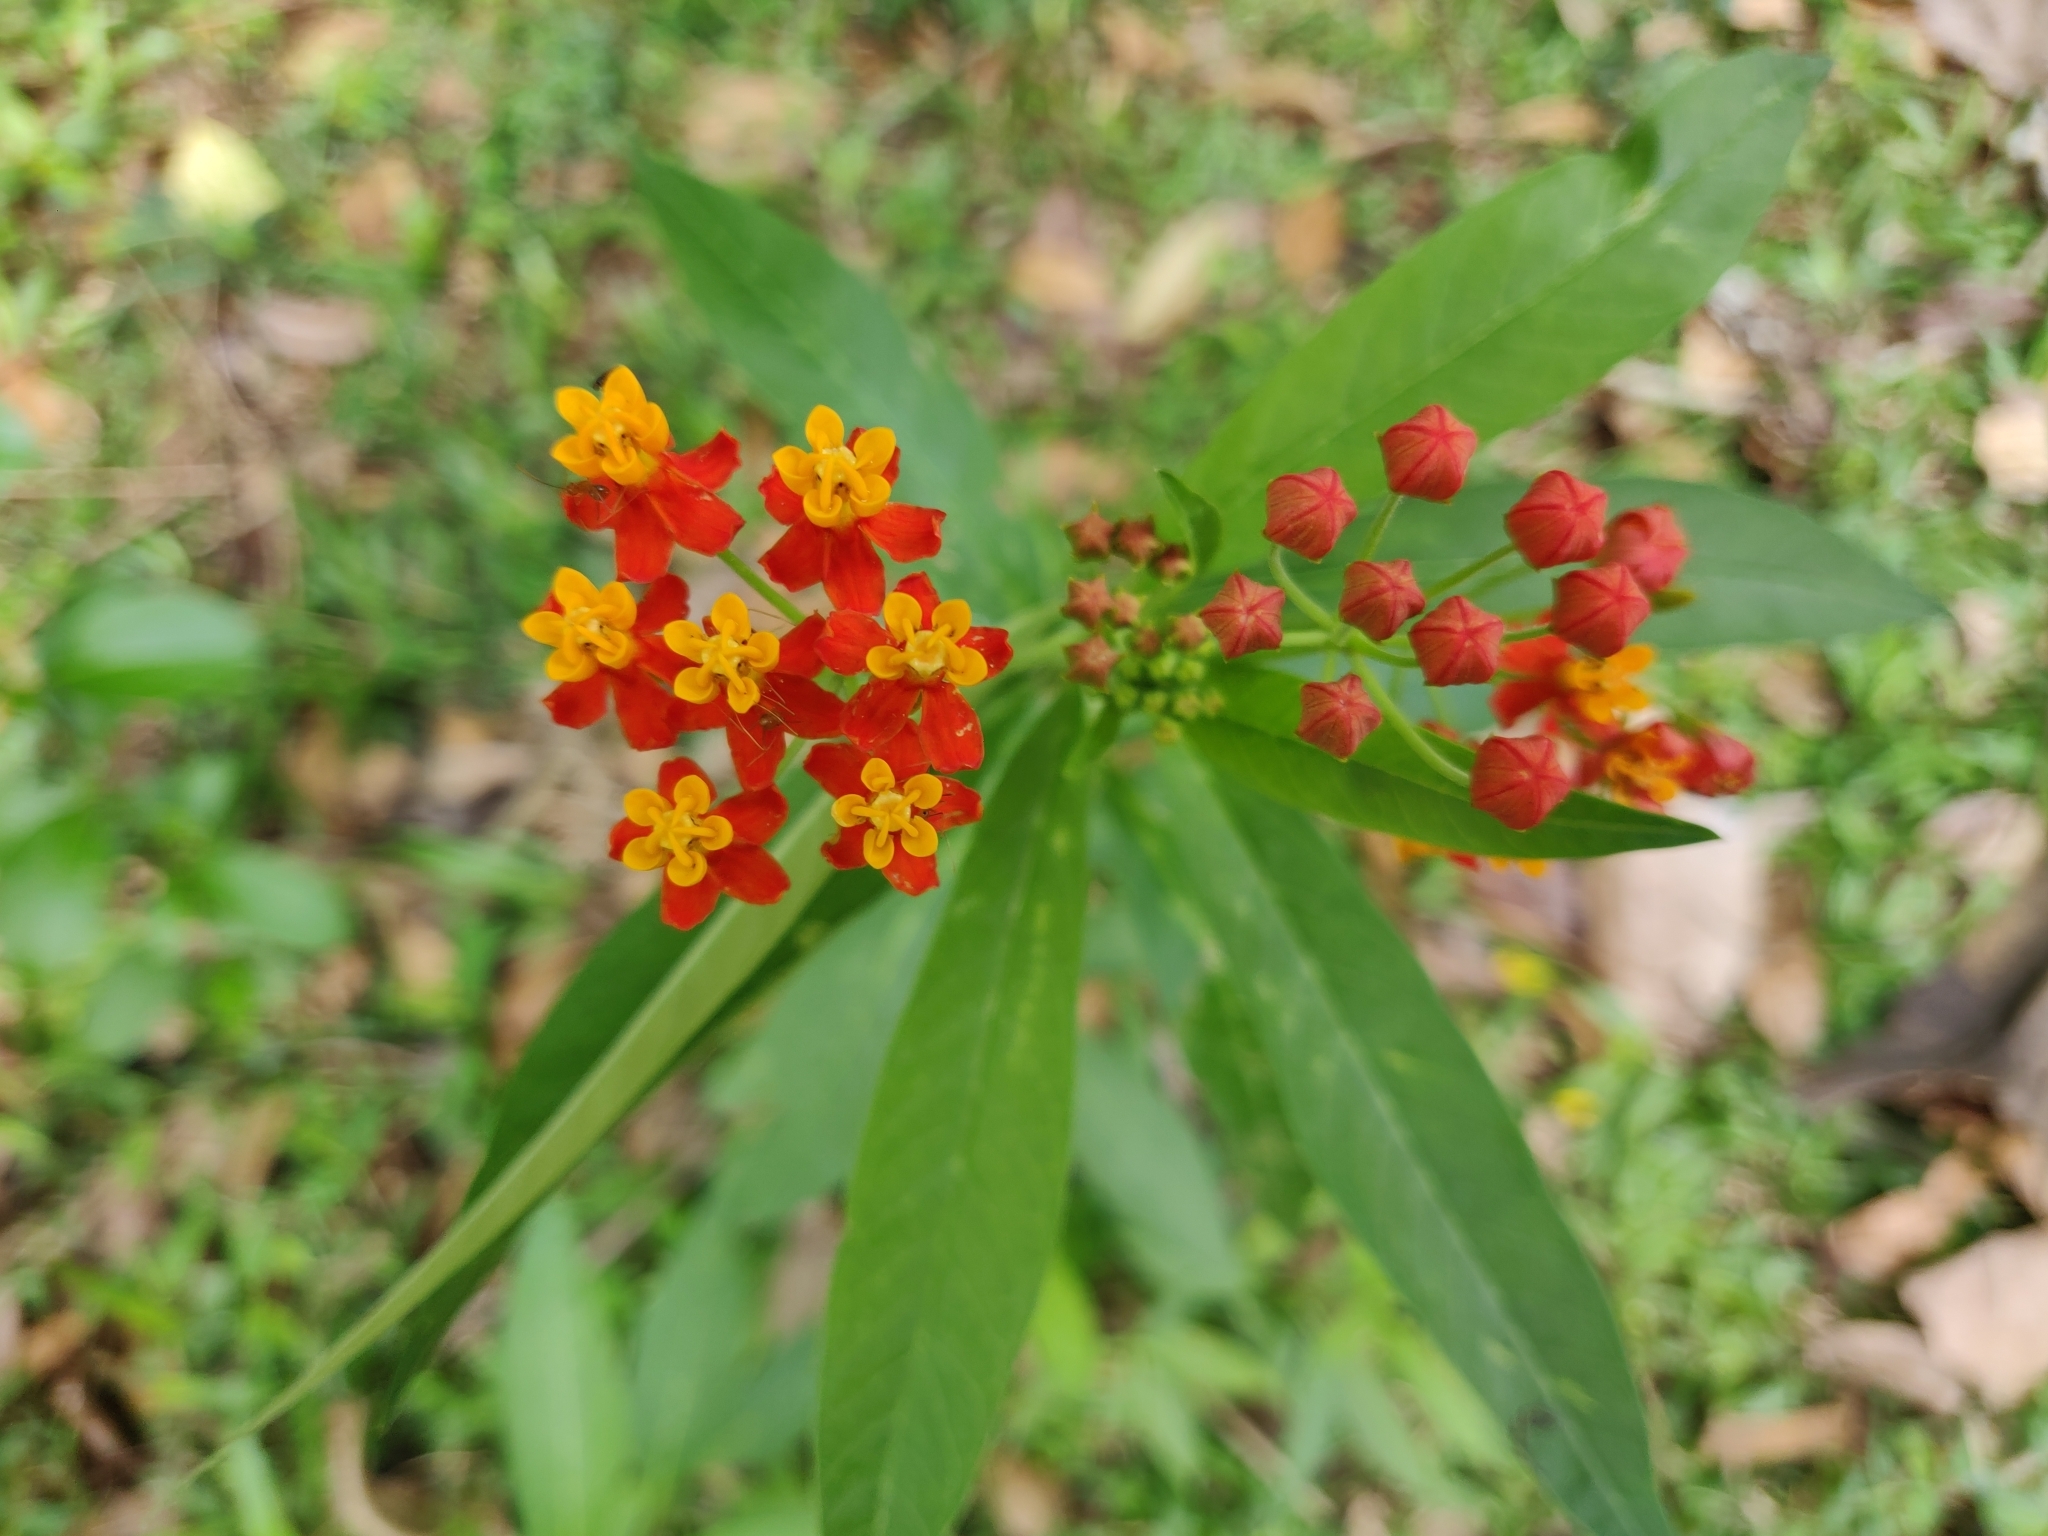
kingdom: Plantae
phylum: Tracheophyta
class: Magnoliopsida
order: Gentianales
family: Apocynaceae
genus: Asclepias
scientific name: Asclepias curassavica
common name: Bloodflower
